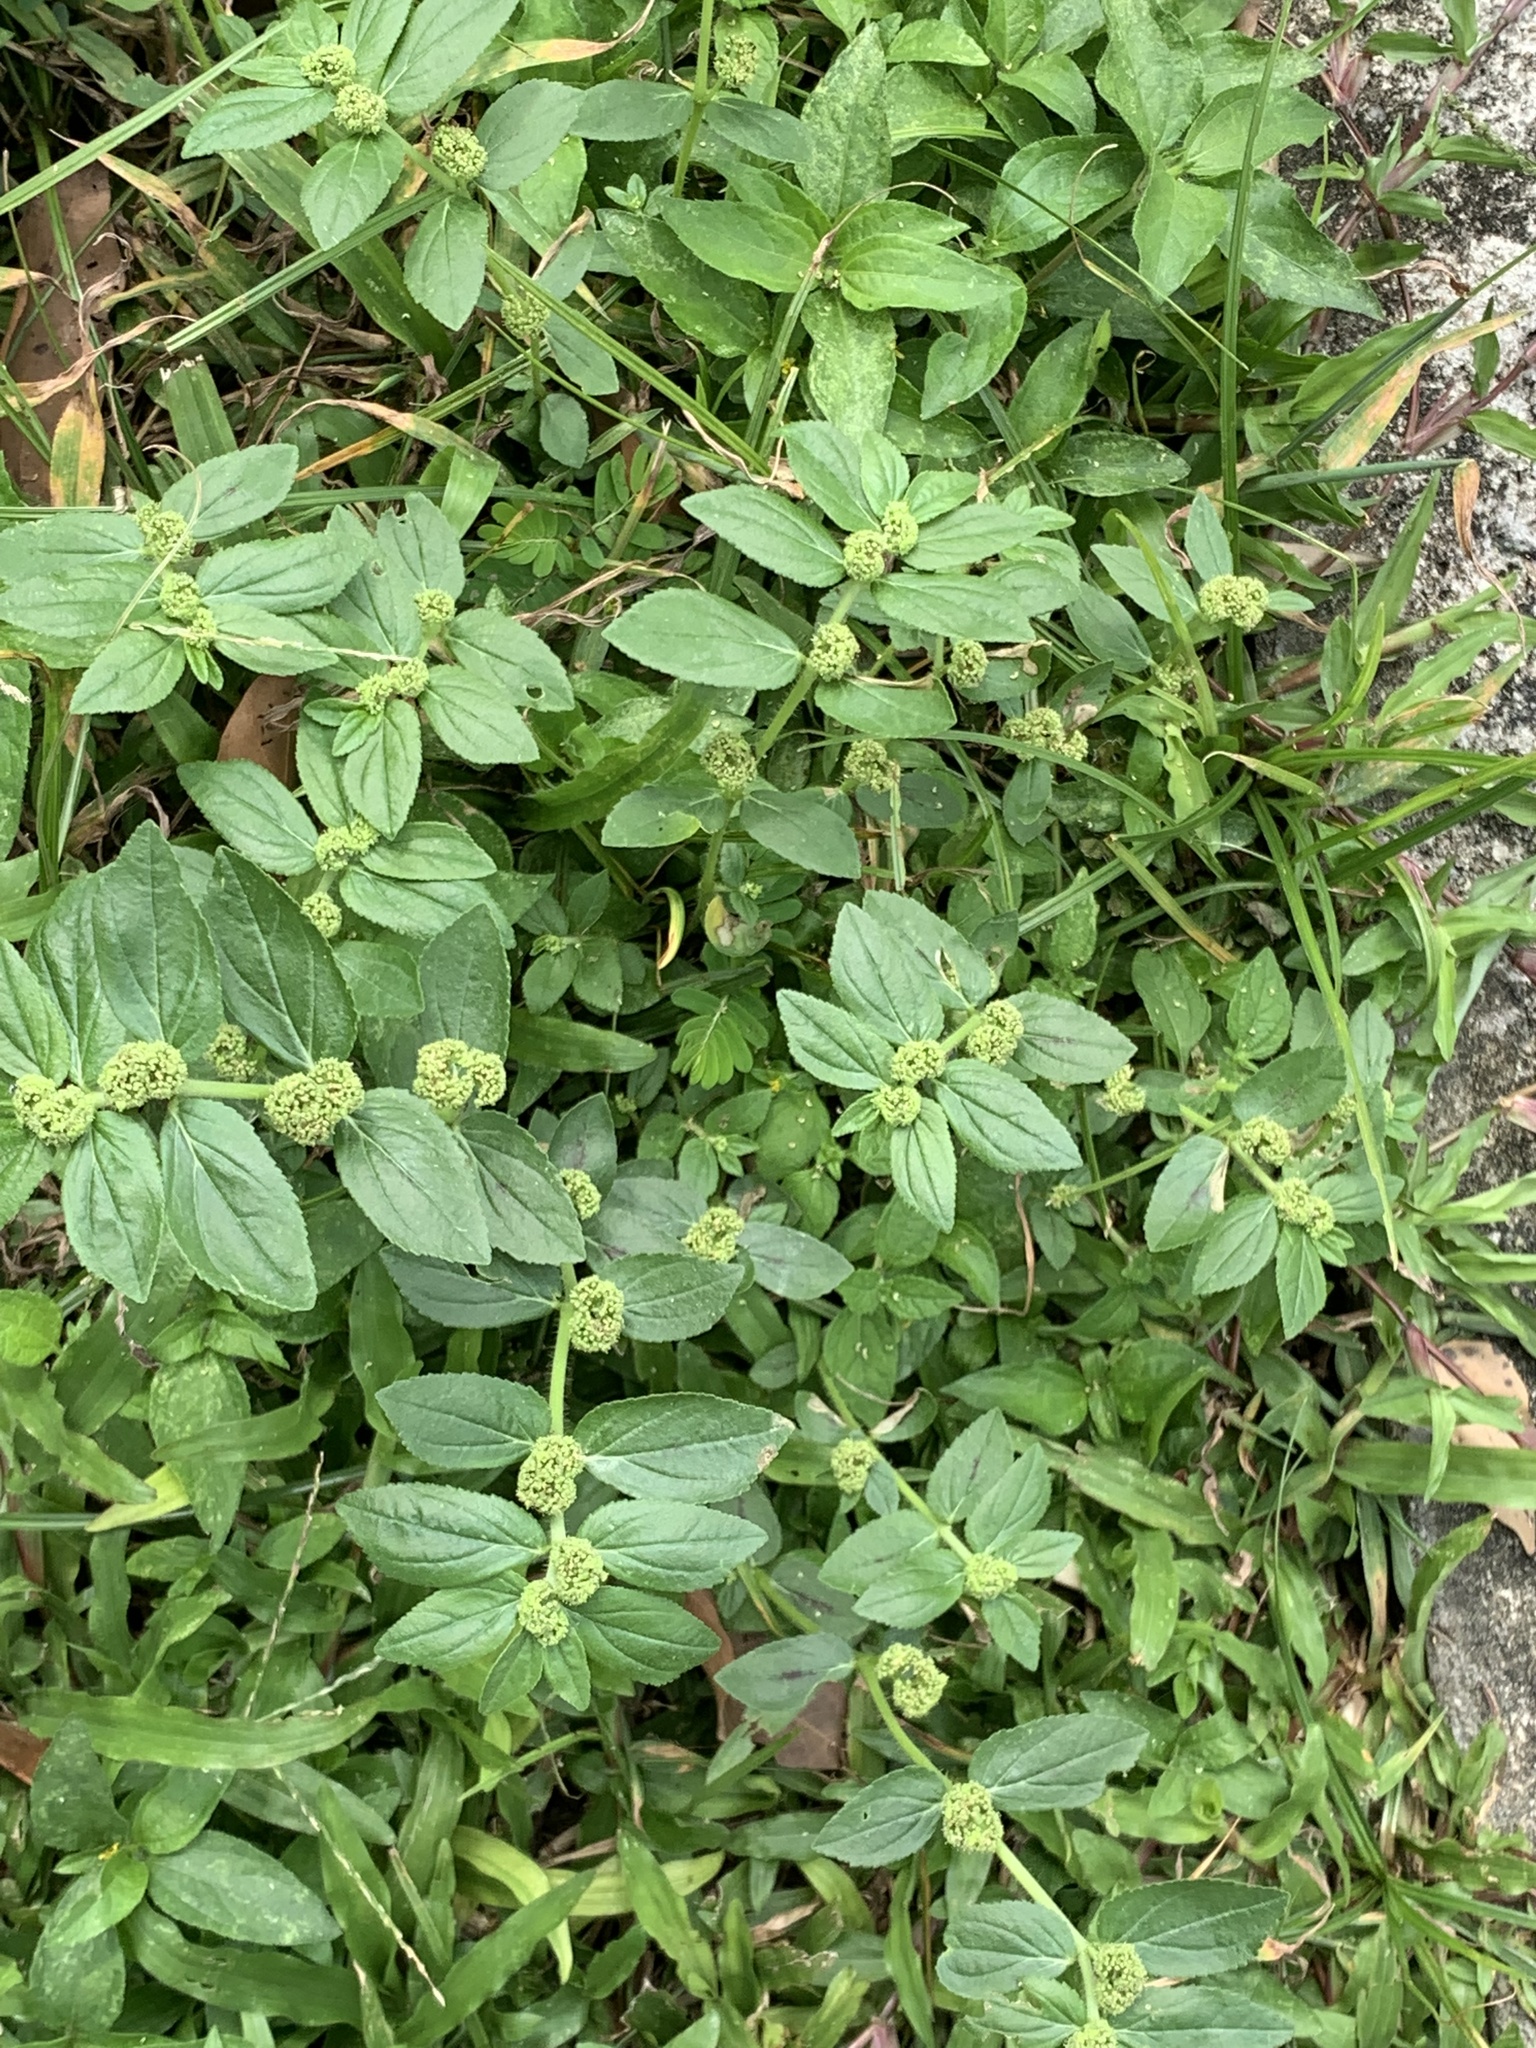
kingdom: Plantae
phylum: Tracheophyta
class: Magnoliopsida
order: Malpighiales
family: Euphorbiaceae
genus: Euphorbia
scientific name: Euphorbia hirta
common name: Pillpod sandmat
